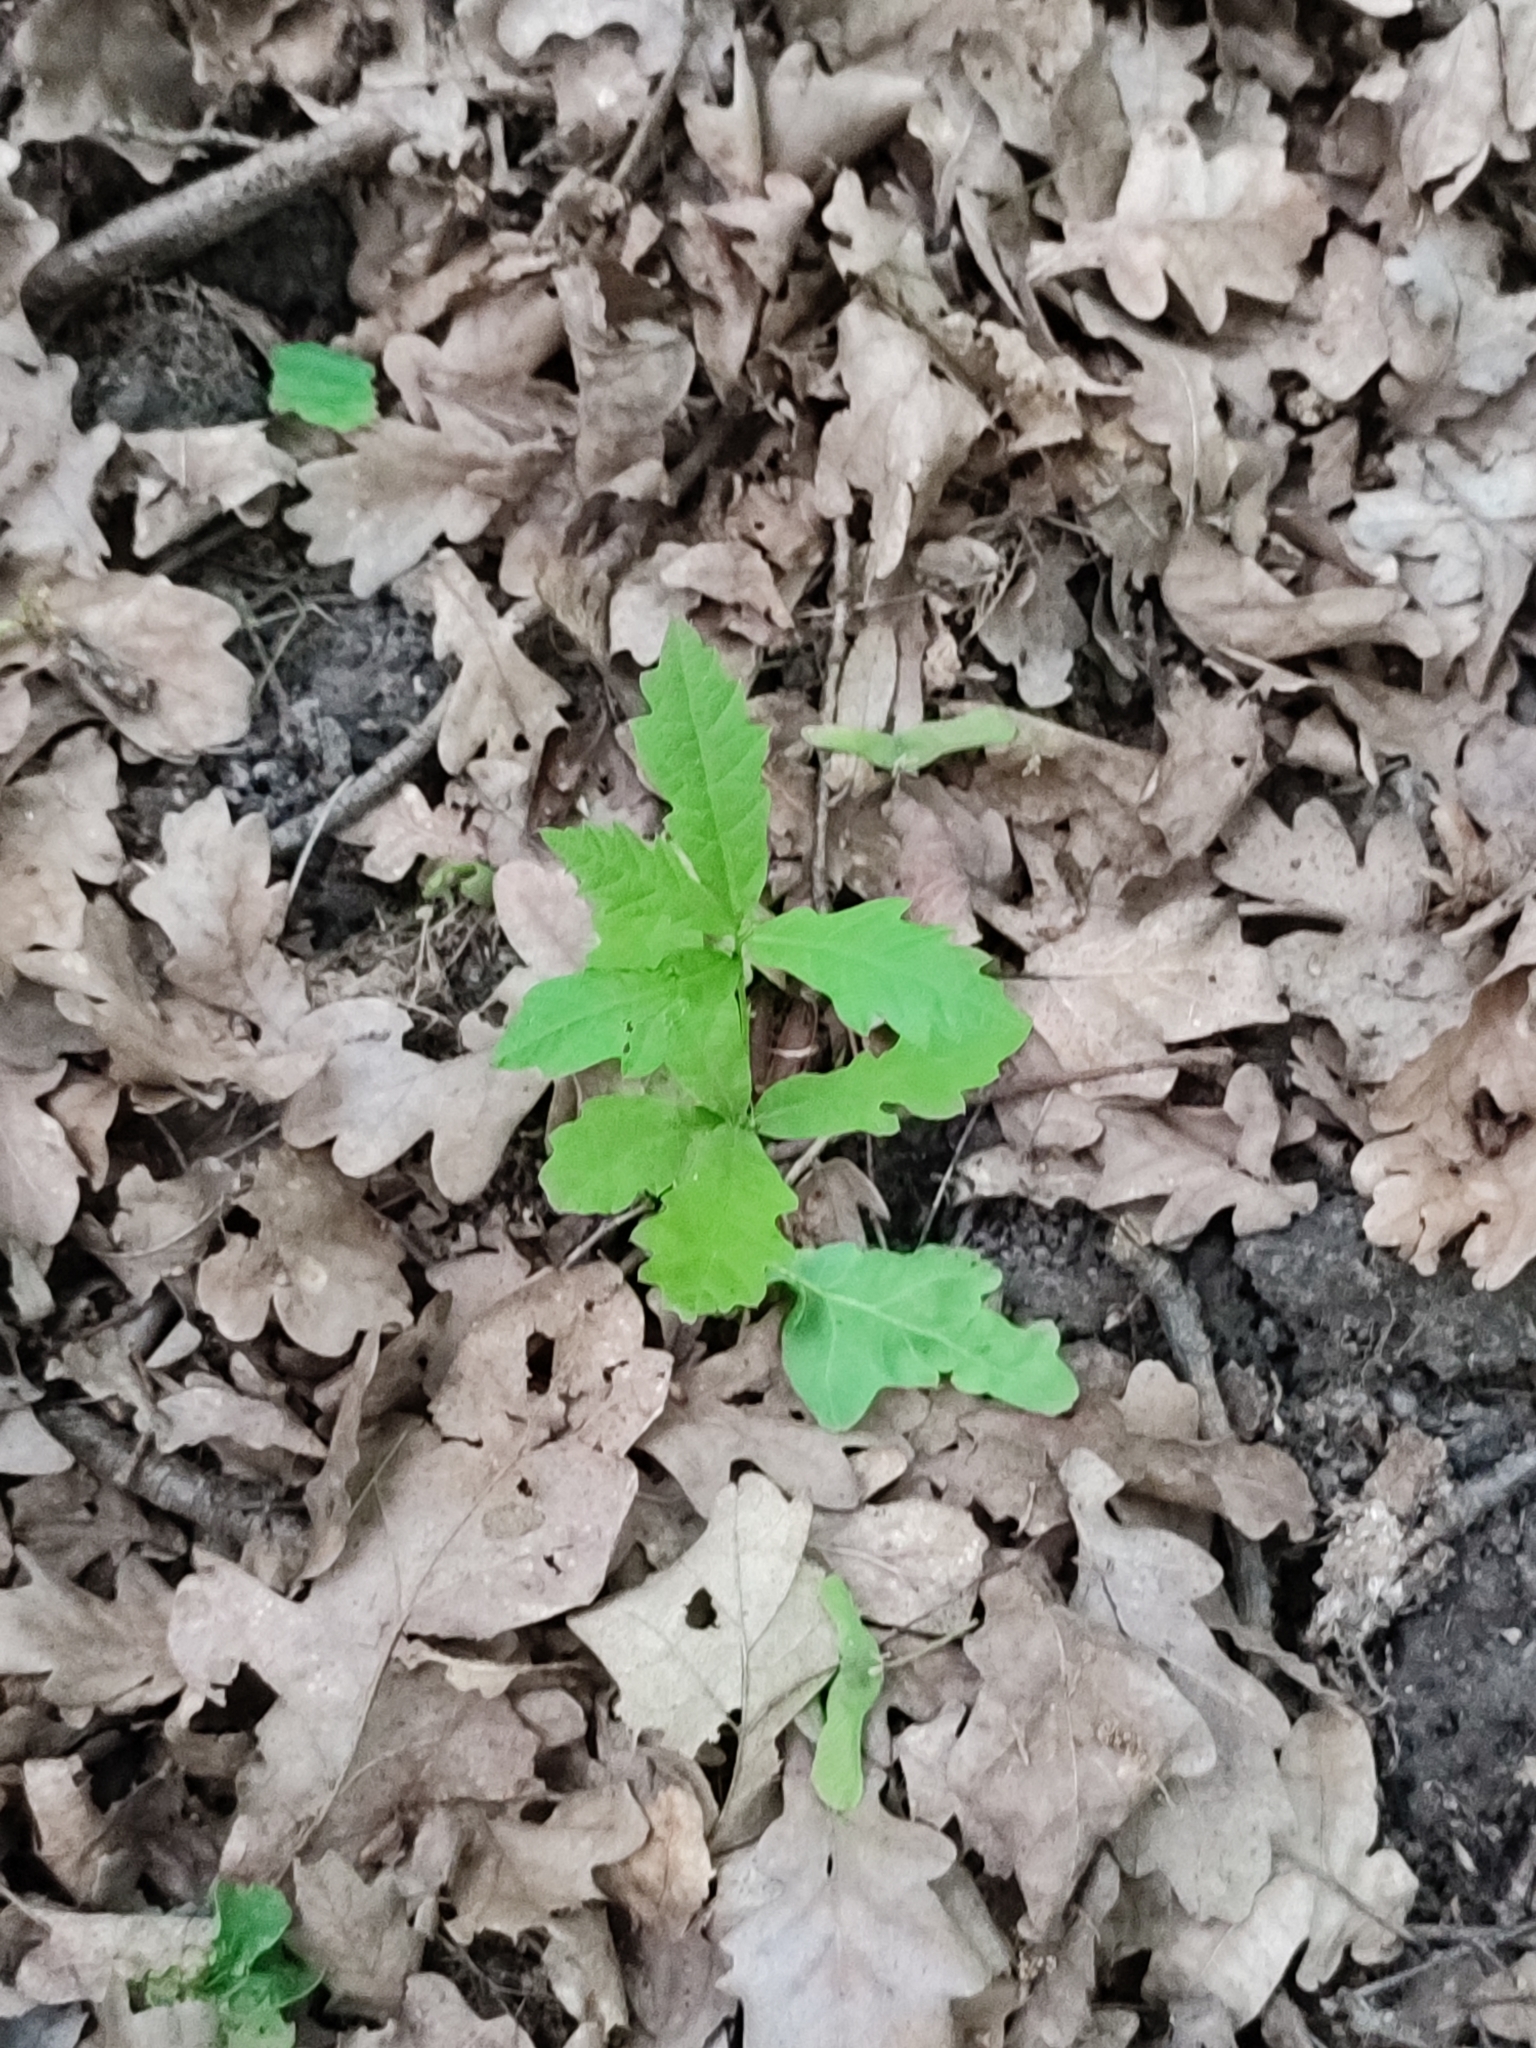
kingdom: Plantae
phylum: Tracheophyta
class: Magnoliopsida
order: Fagales
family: Fagaceae
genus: Quercus
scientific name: Quercus robur
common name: Pedunculate oak
